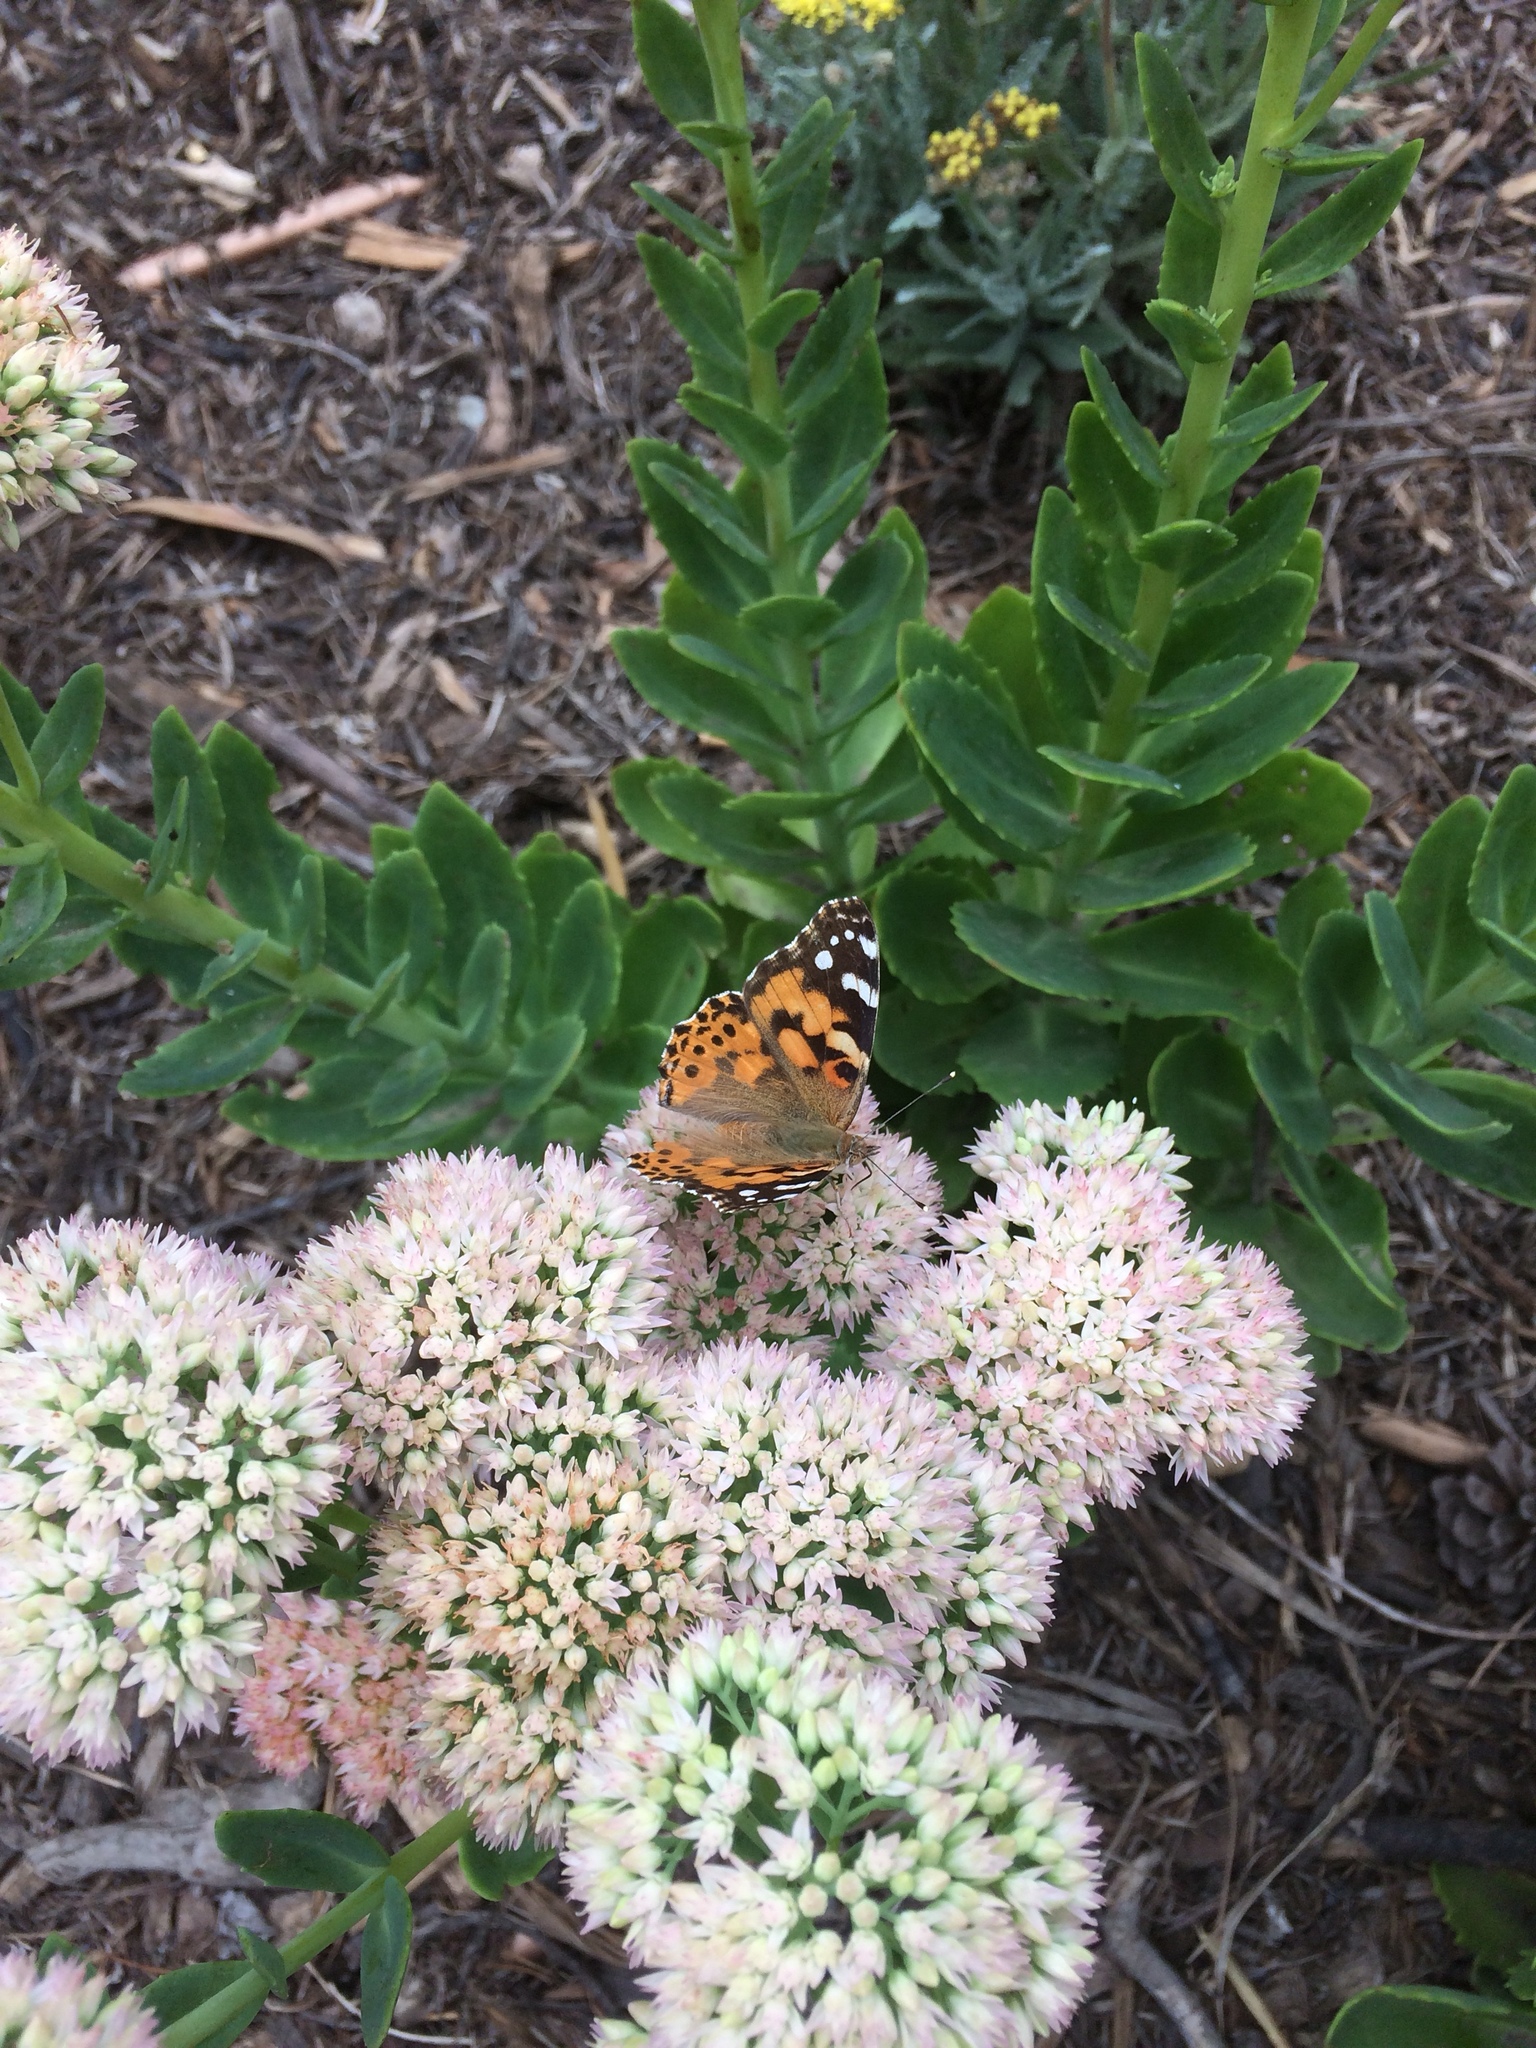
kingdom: Animalia
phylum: Arthropoda
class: Insecta
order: Lepidoptera
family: Nymphalidae
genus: Vanessa
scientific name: Vanessa cardui
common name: Painted lady
